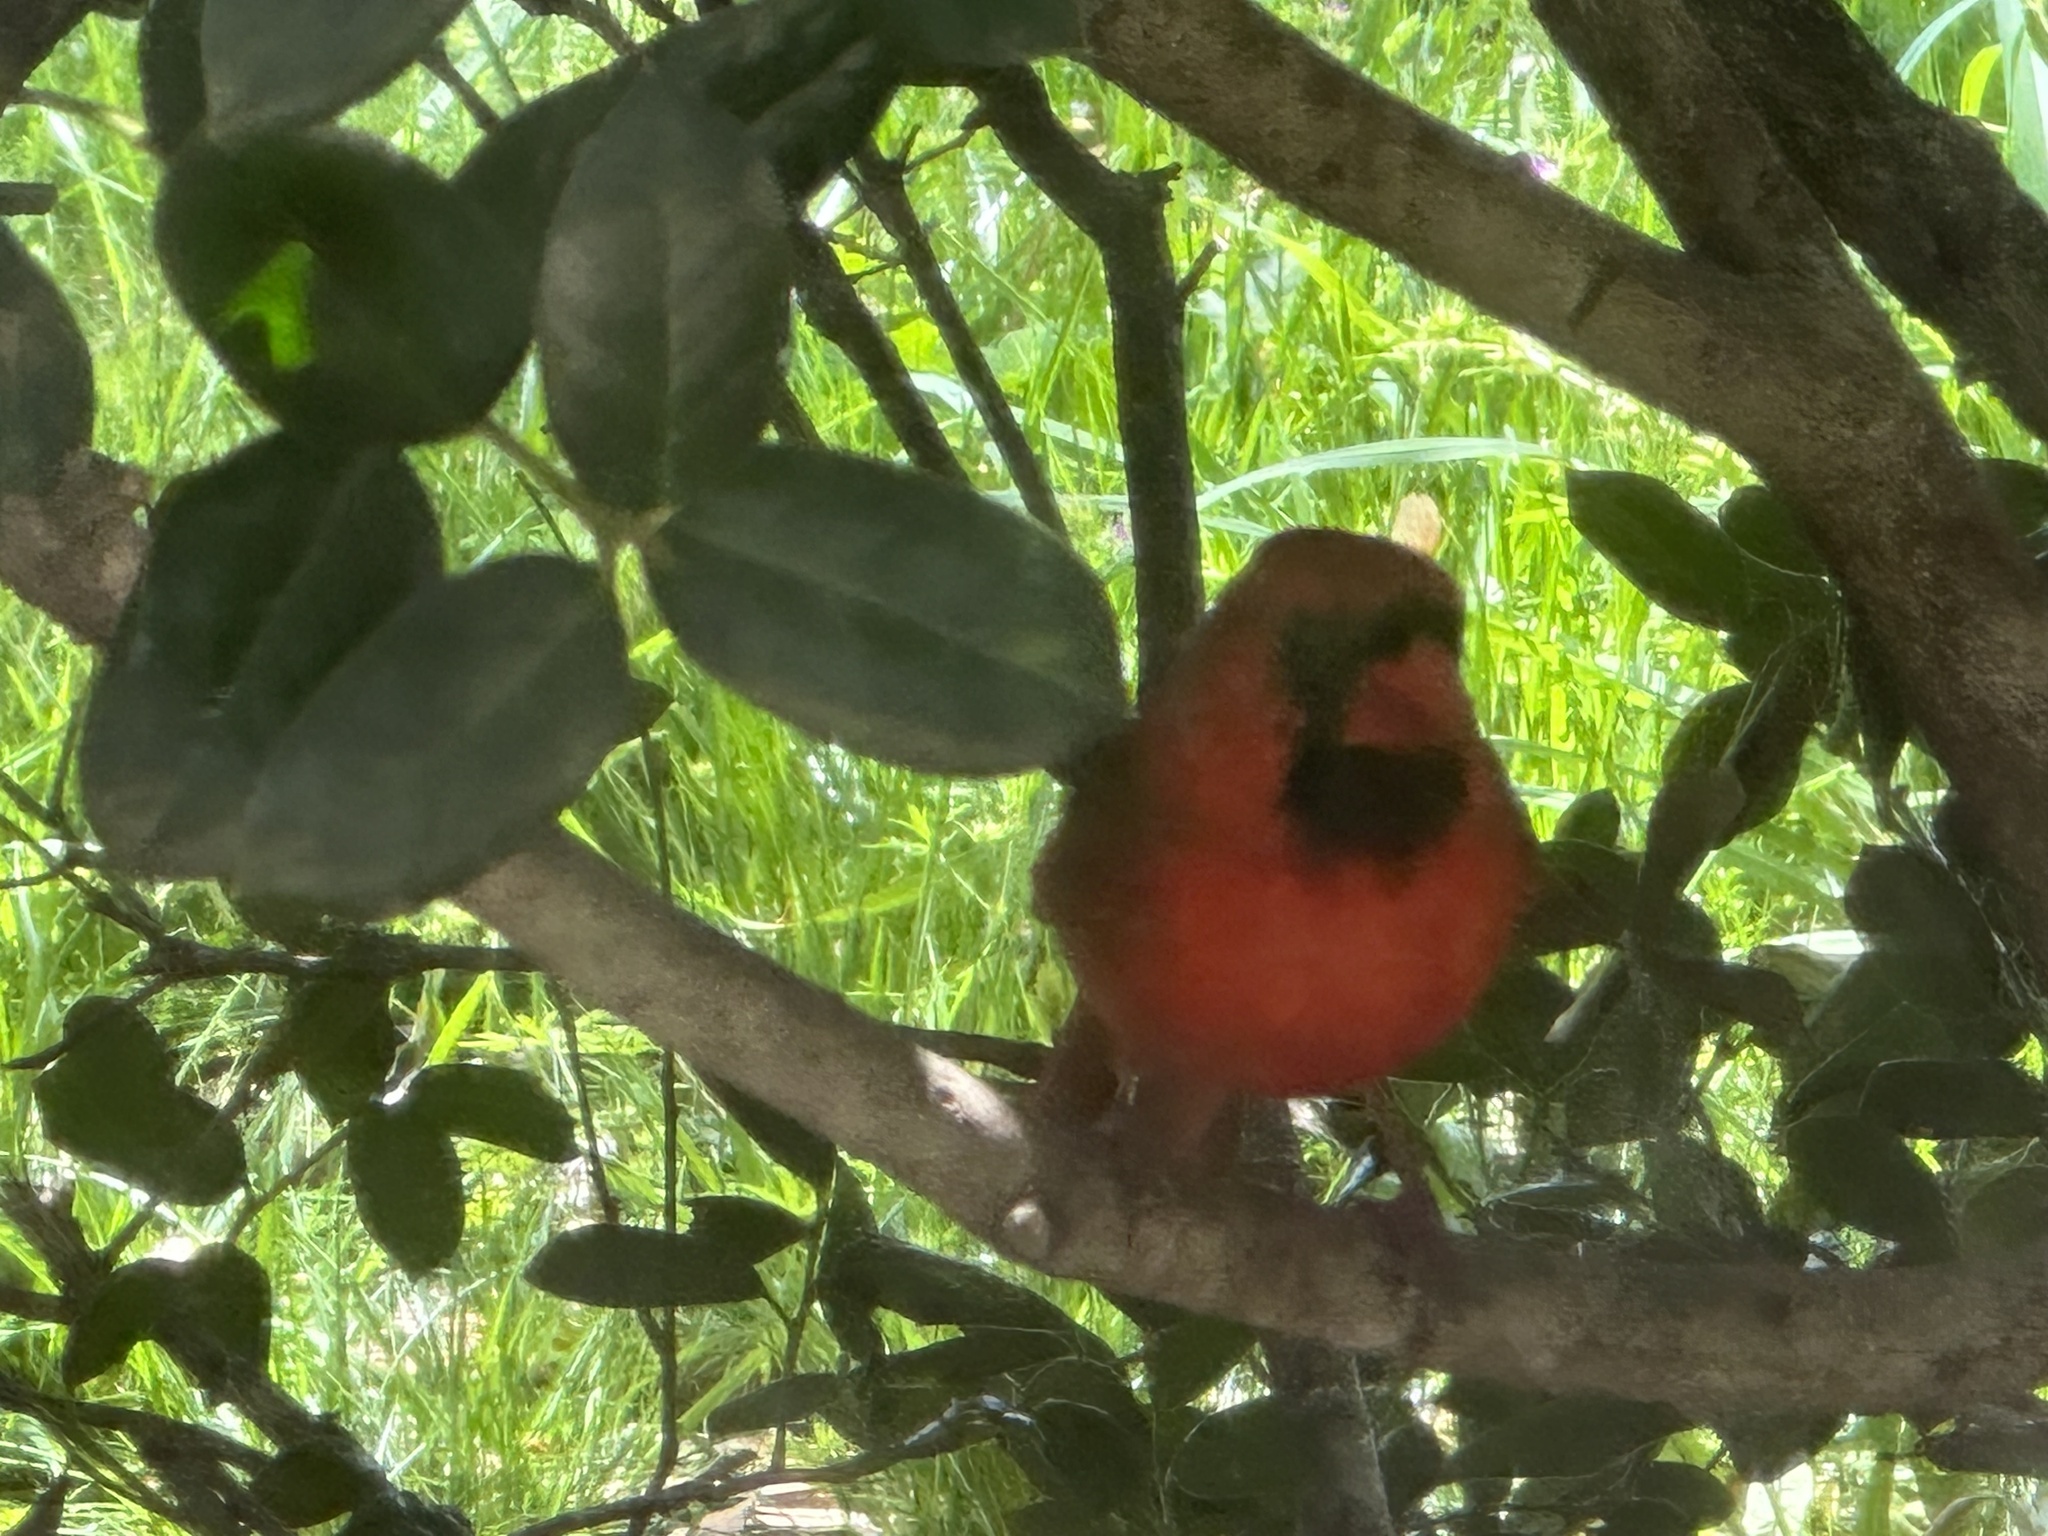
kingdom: Animalia
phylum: Chordata
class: Aves
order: Passeriformes
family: Cardinalidae
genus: Cardinalis
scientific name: Cardinalis cardinalis
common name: Northern cardinal
